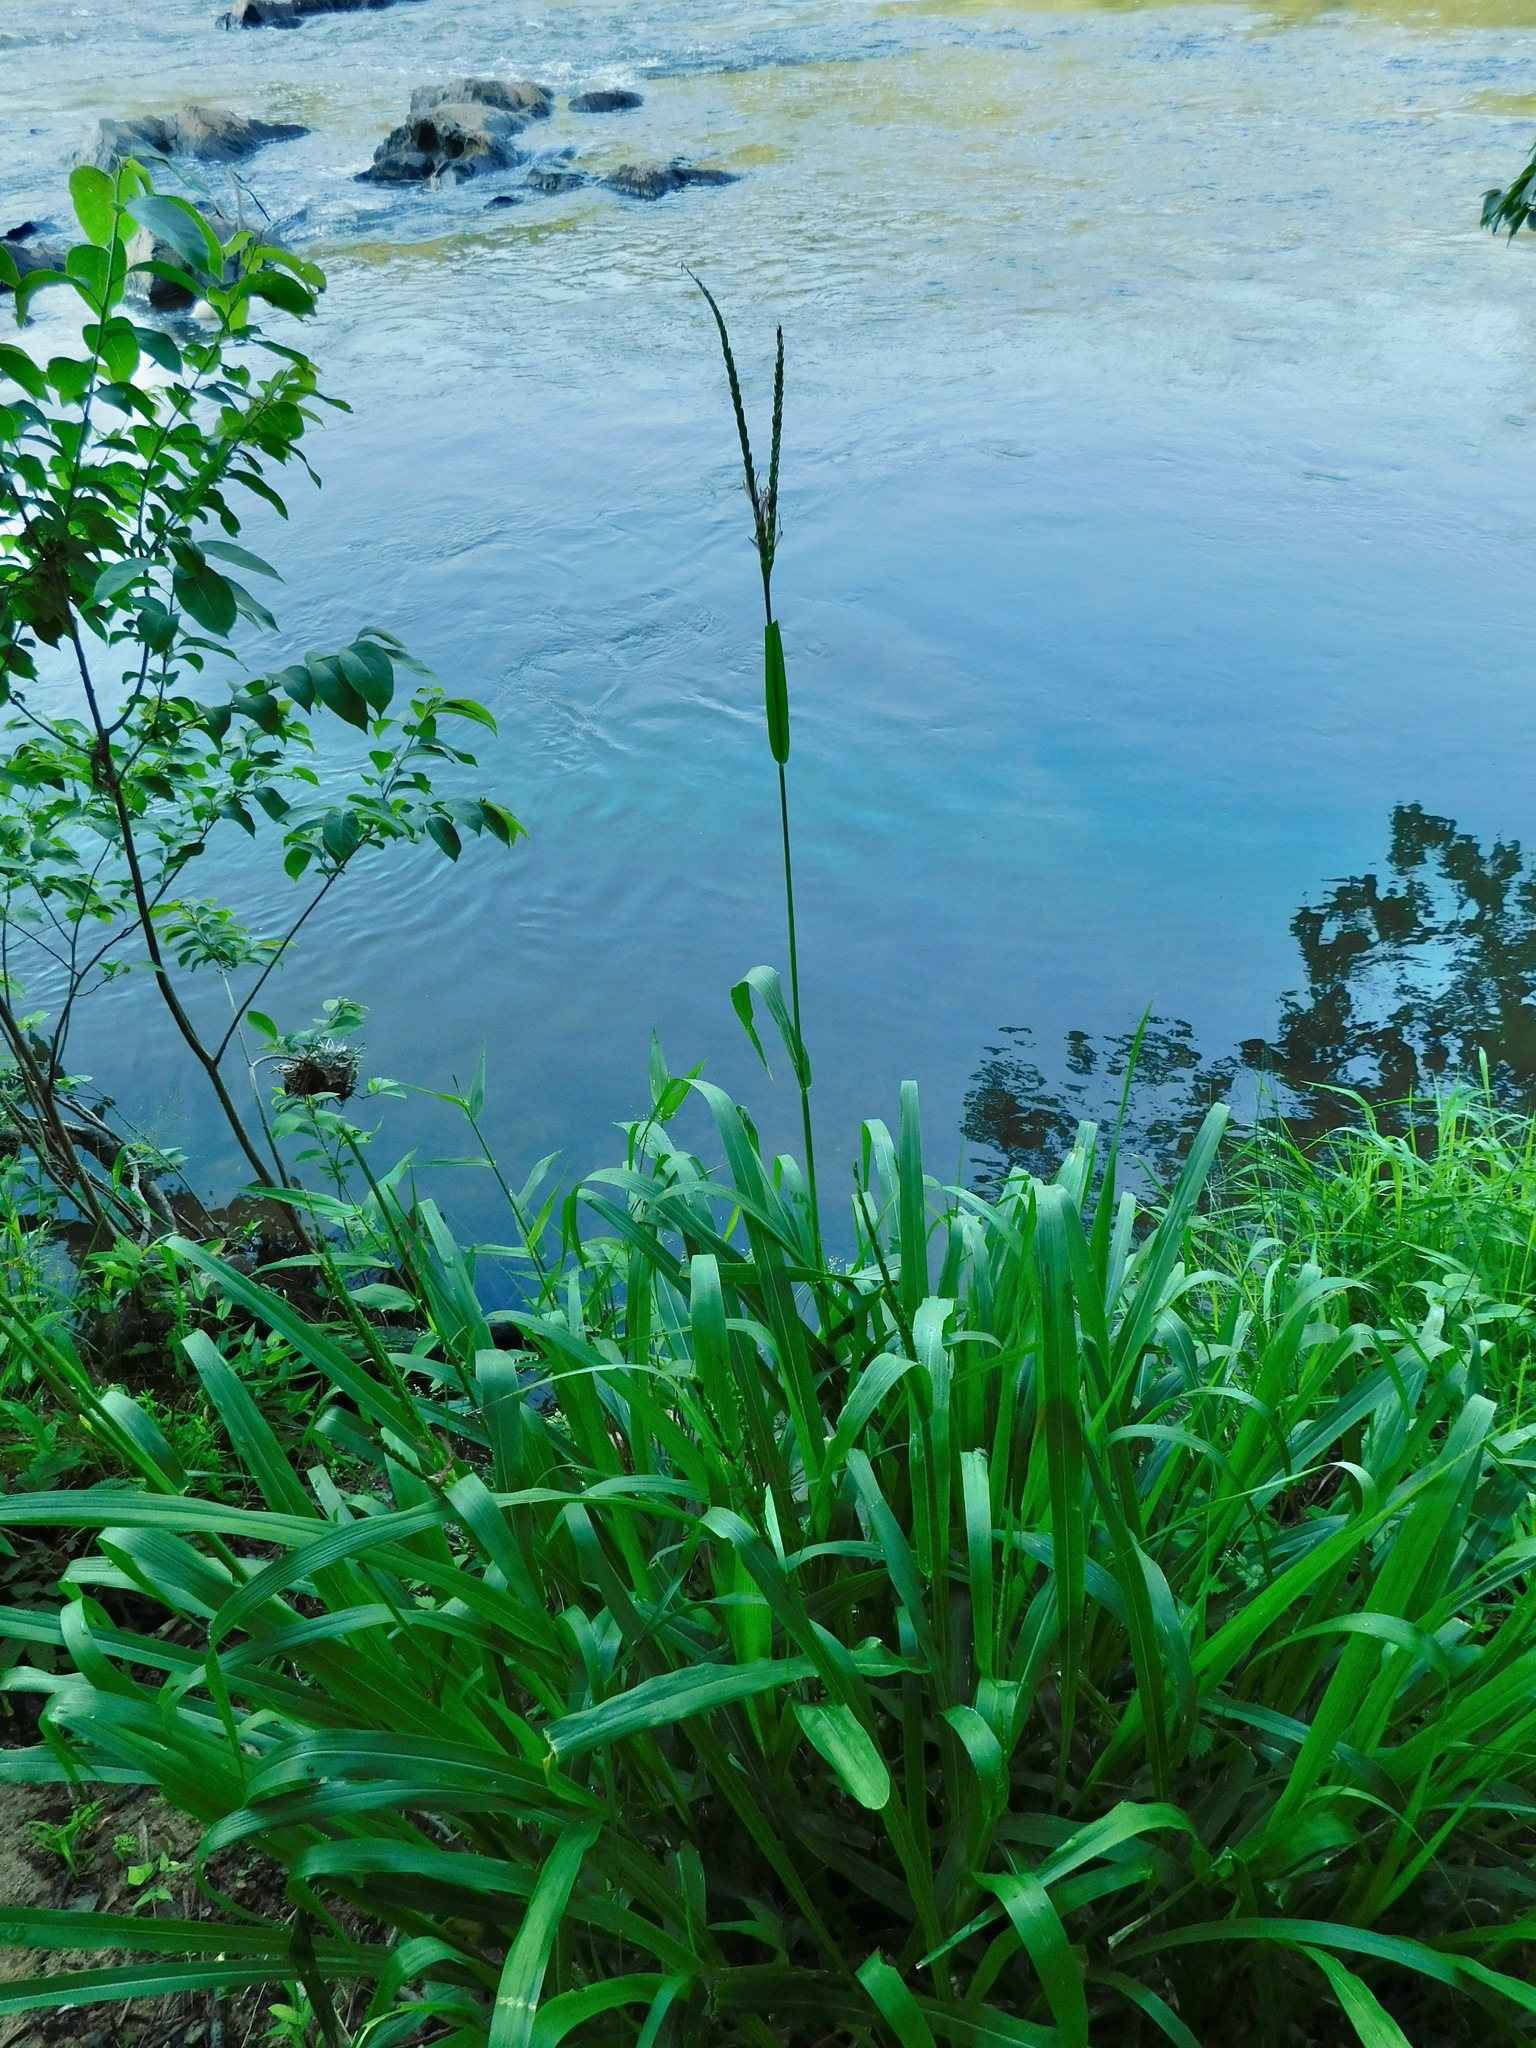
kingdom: Plantae
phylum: Tracheophyta
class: Liliopsida
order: Poales
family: Poaceae
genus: Tripsacum
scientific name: Tripsacum dactyloides
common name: Buffalo-grass
